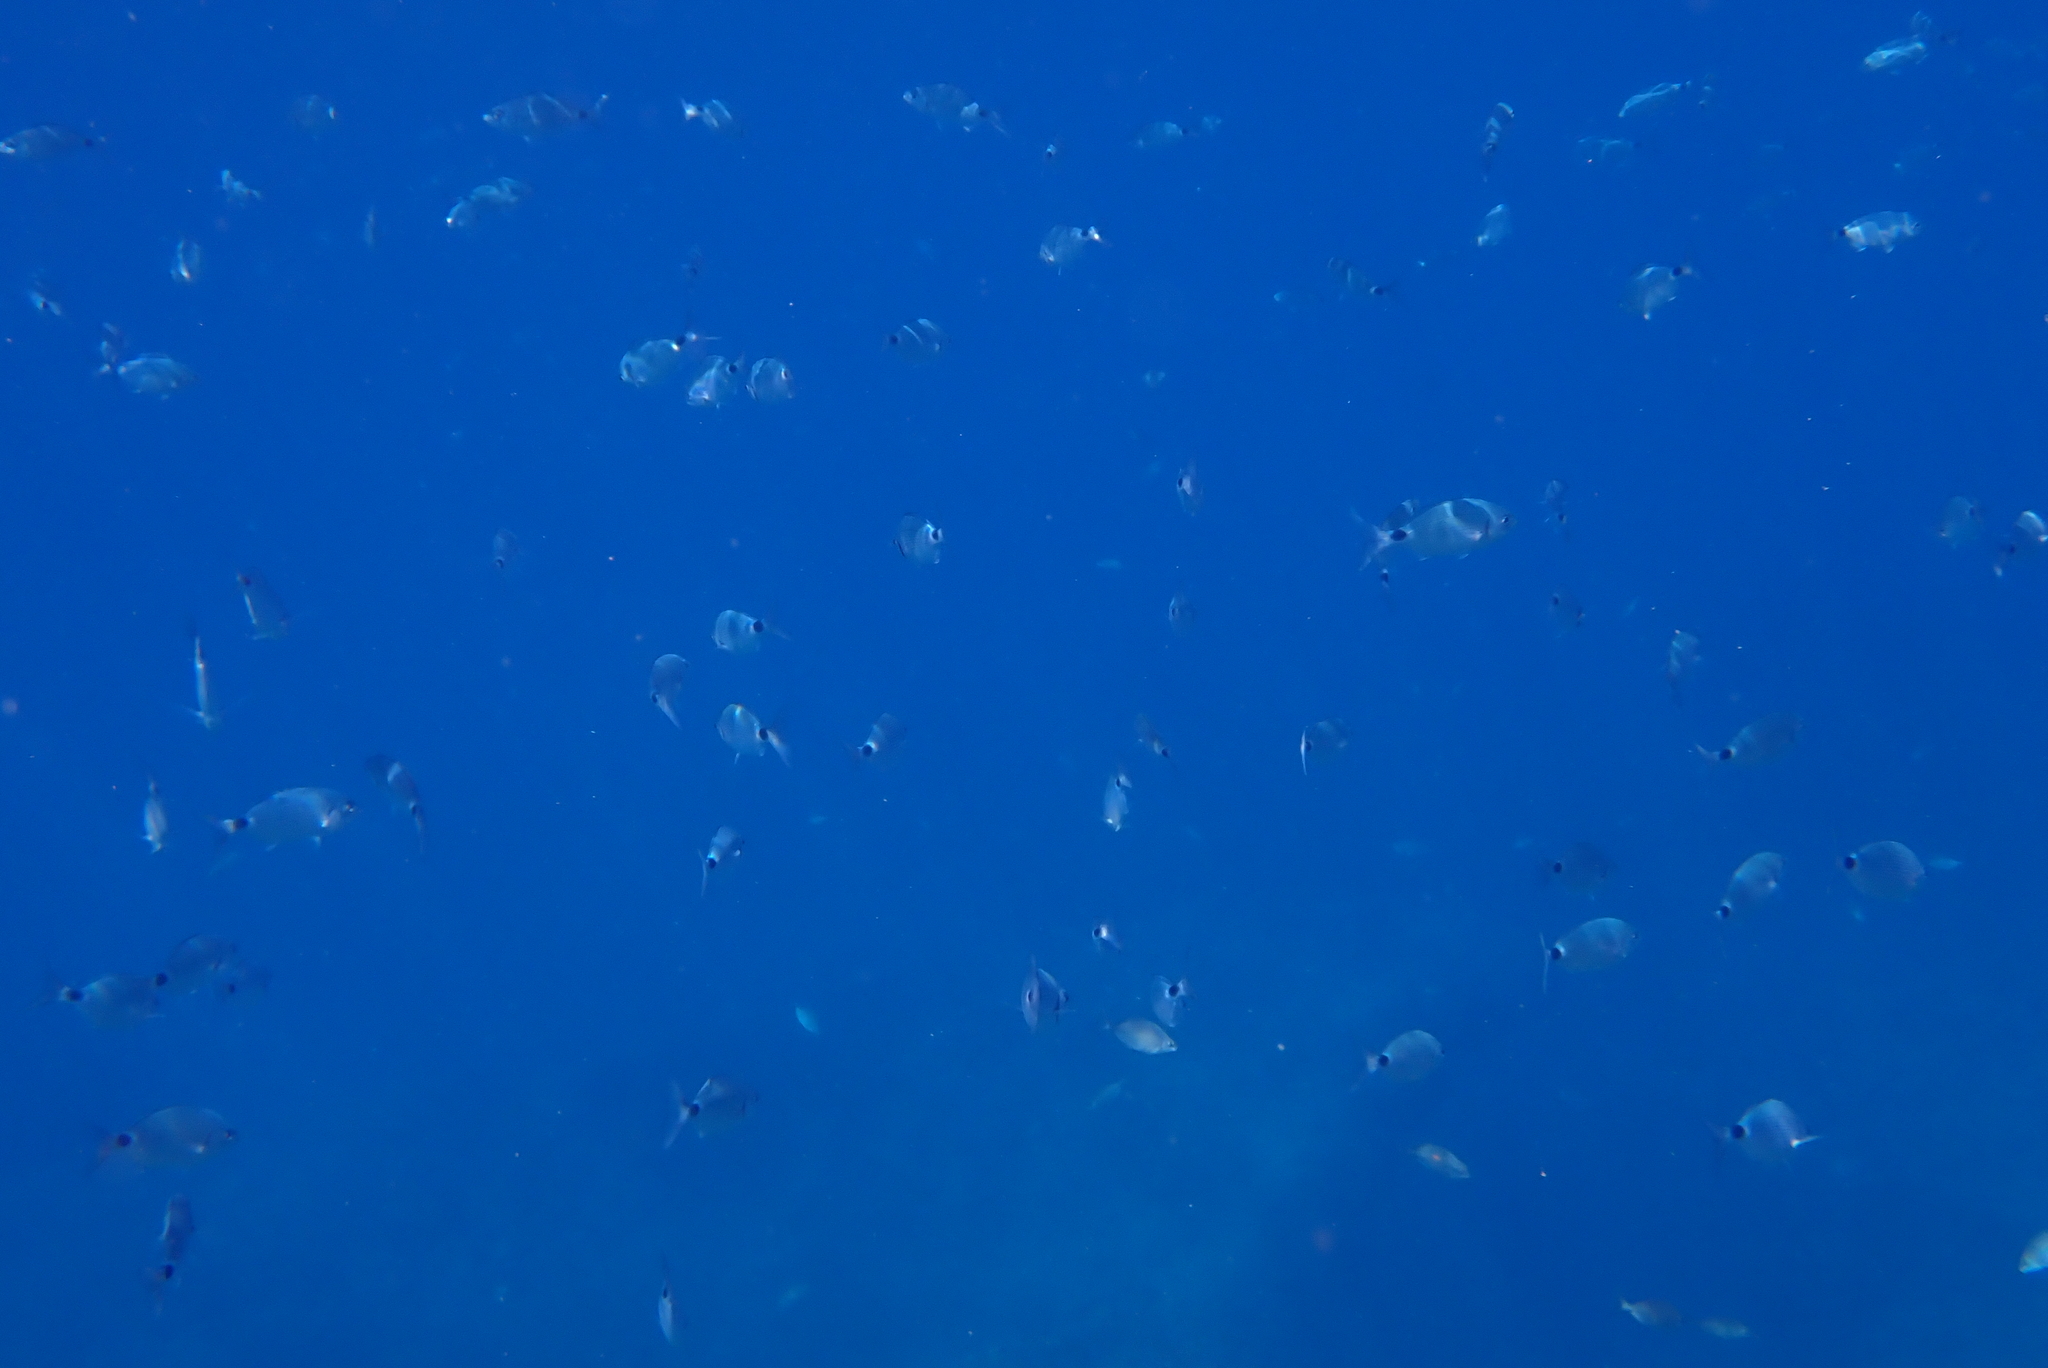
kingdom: Animalia
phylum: Chordata
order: Perciformes
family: Sparidae
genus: Oblada
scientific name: Oblada melanura
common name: Saddled seabream
